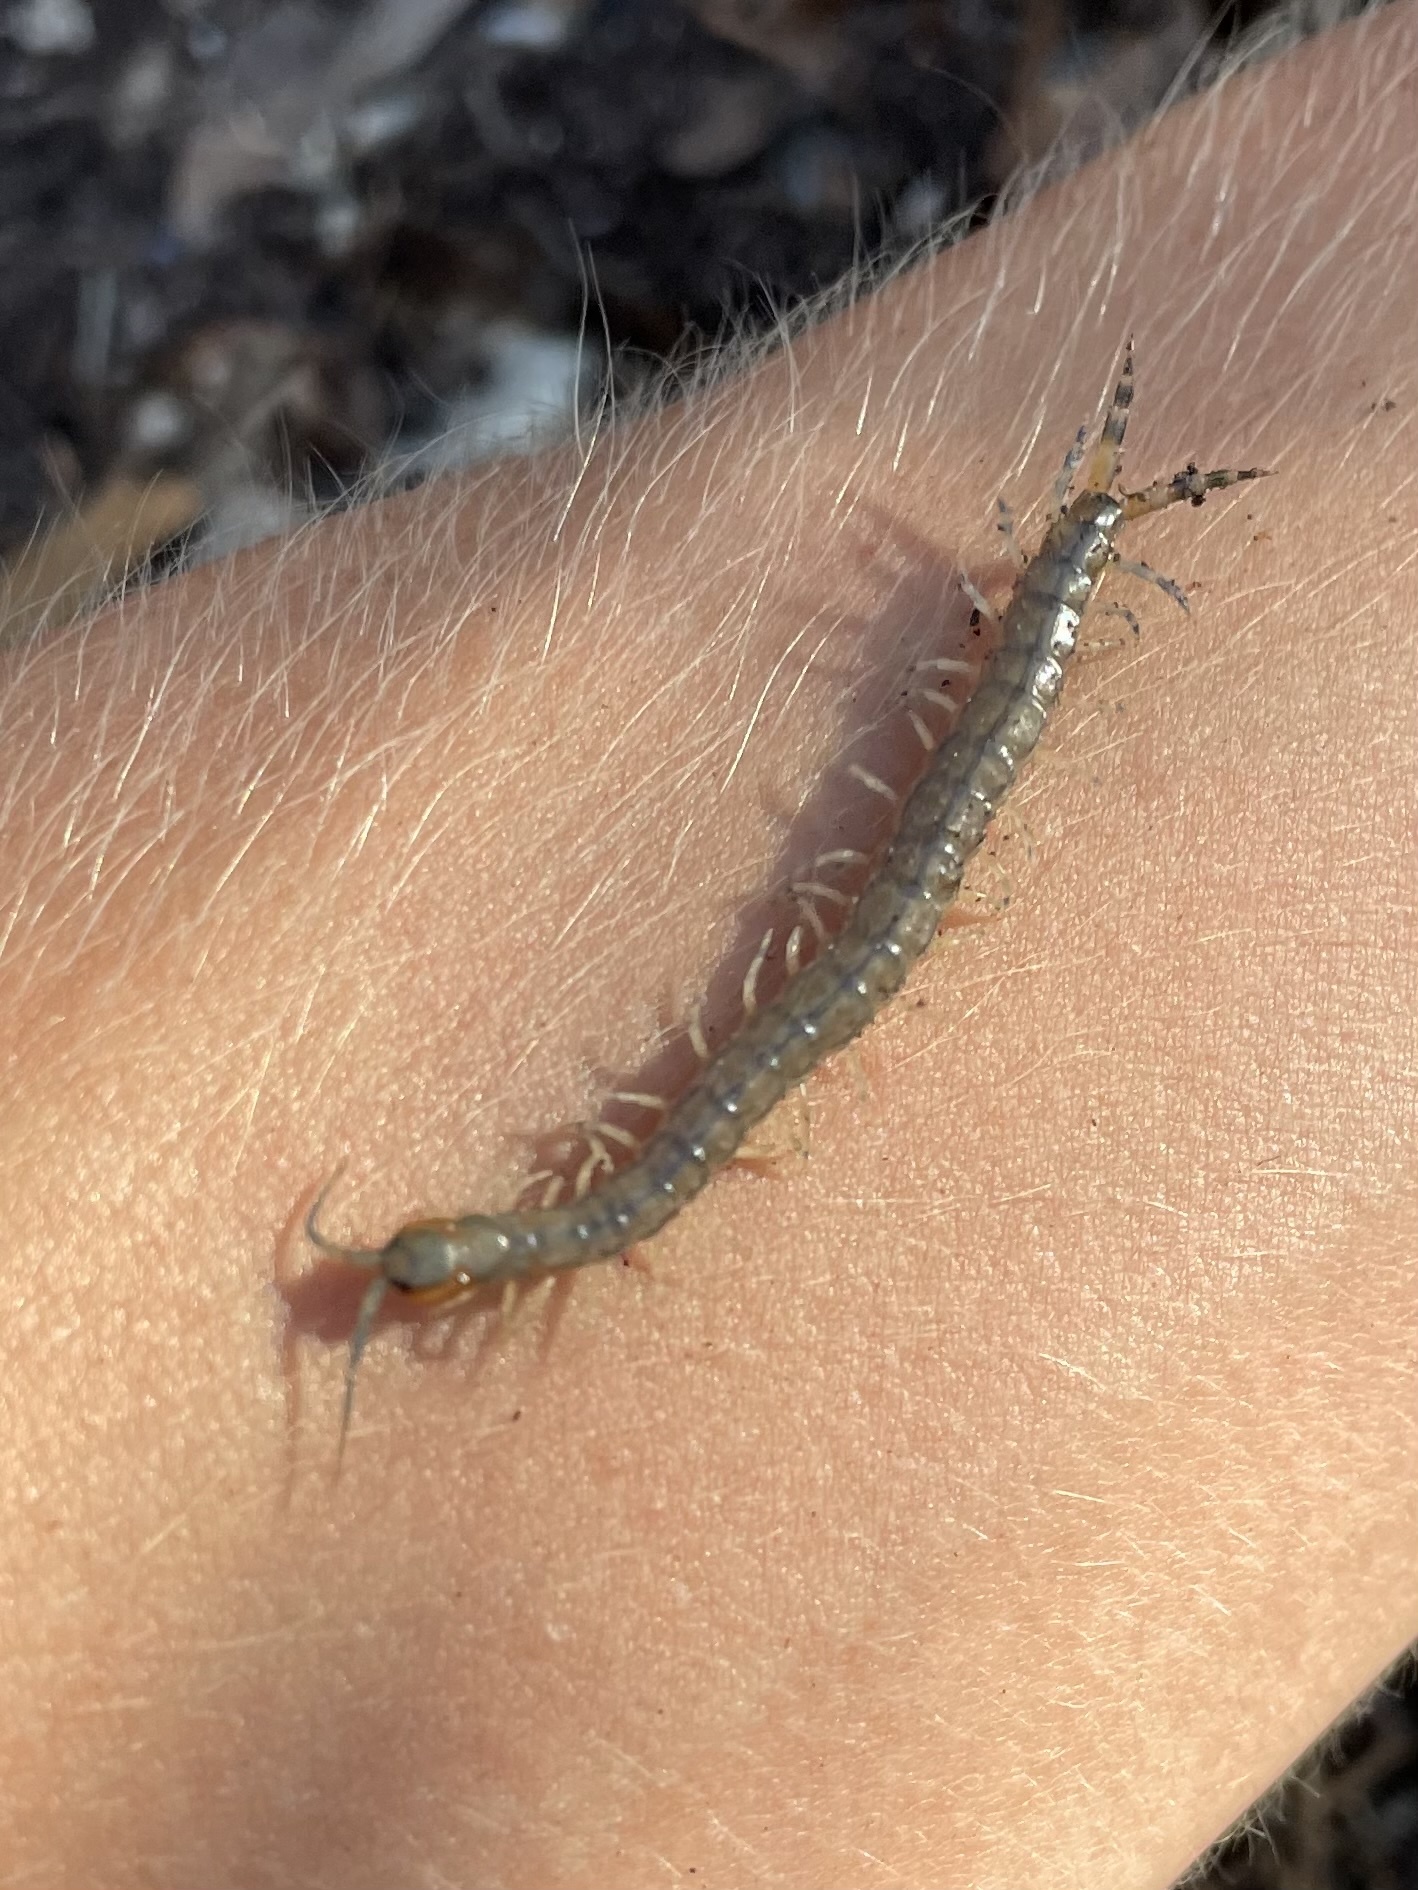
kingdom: Animalia
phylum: Arthropoda
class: Chilopoda
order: Scolopendromorpha
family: Scolopendridae
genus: Hemiscolopendra
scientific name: Hemiscolopendra marginata
